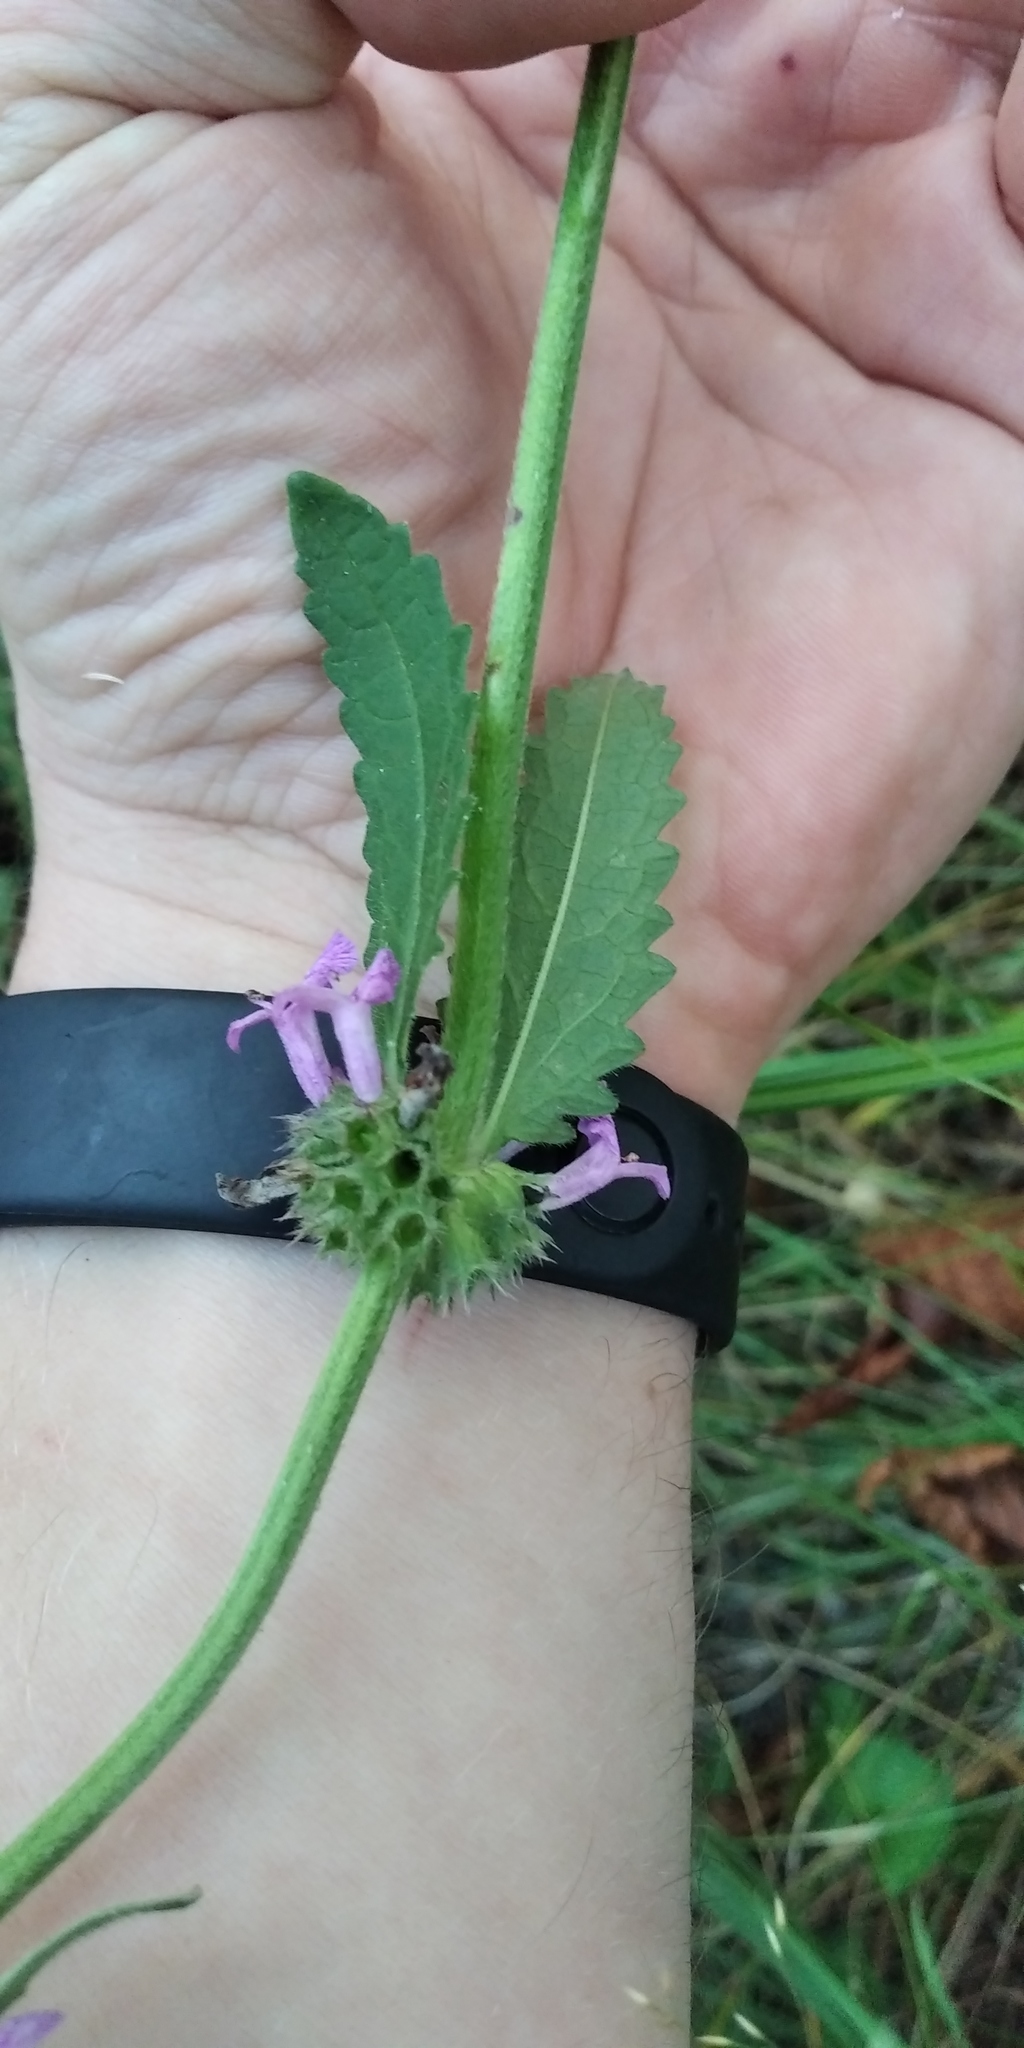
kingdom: Plantae
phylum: Tracheophyta
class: Magnoliopsida
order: Lamiales
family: Lamiaceae
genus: Betonica
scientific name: Betonica officinalis
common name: Bishop's-wort
